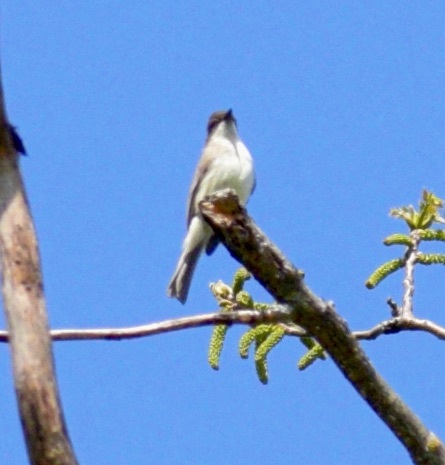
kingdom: Animalia
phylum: Chordata
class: Aves
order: Passeriformes
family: Tyrannidae
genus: Sayornis
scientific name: Sayornis phoebe
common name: Eastern phoebe
